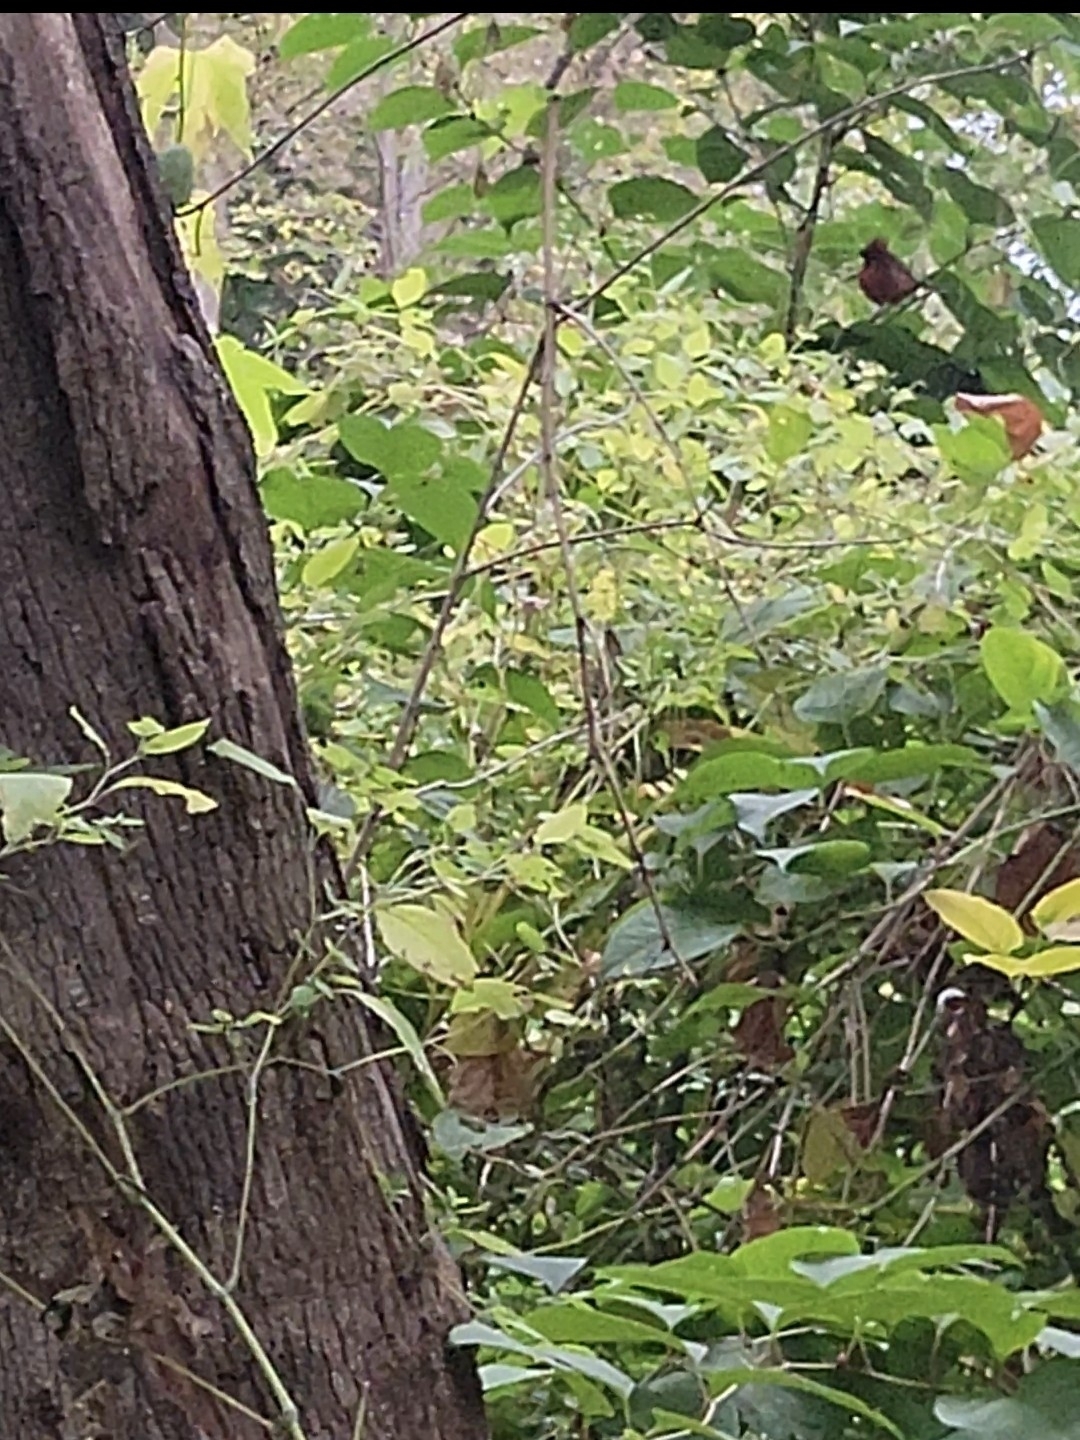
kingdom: Animalia
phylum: Chordata
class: Aves
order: Passeriformes
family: Cardinalidae
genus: Cardinalis
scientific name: Cardinalis cardinalis
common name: Northern cardinal
